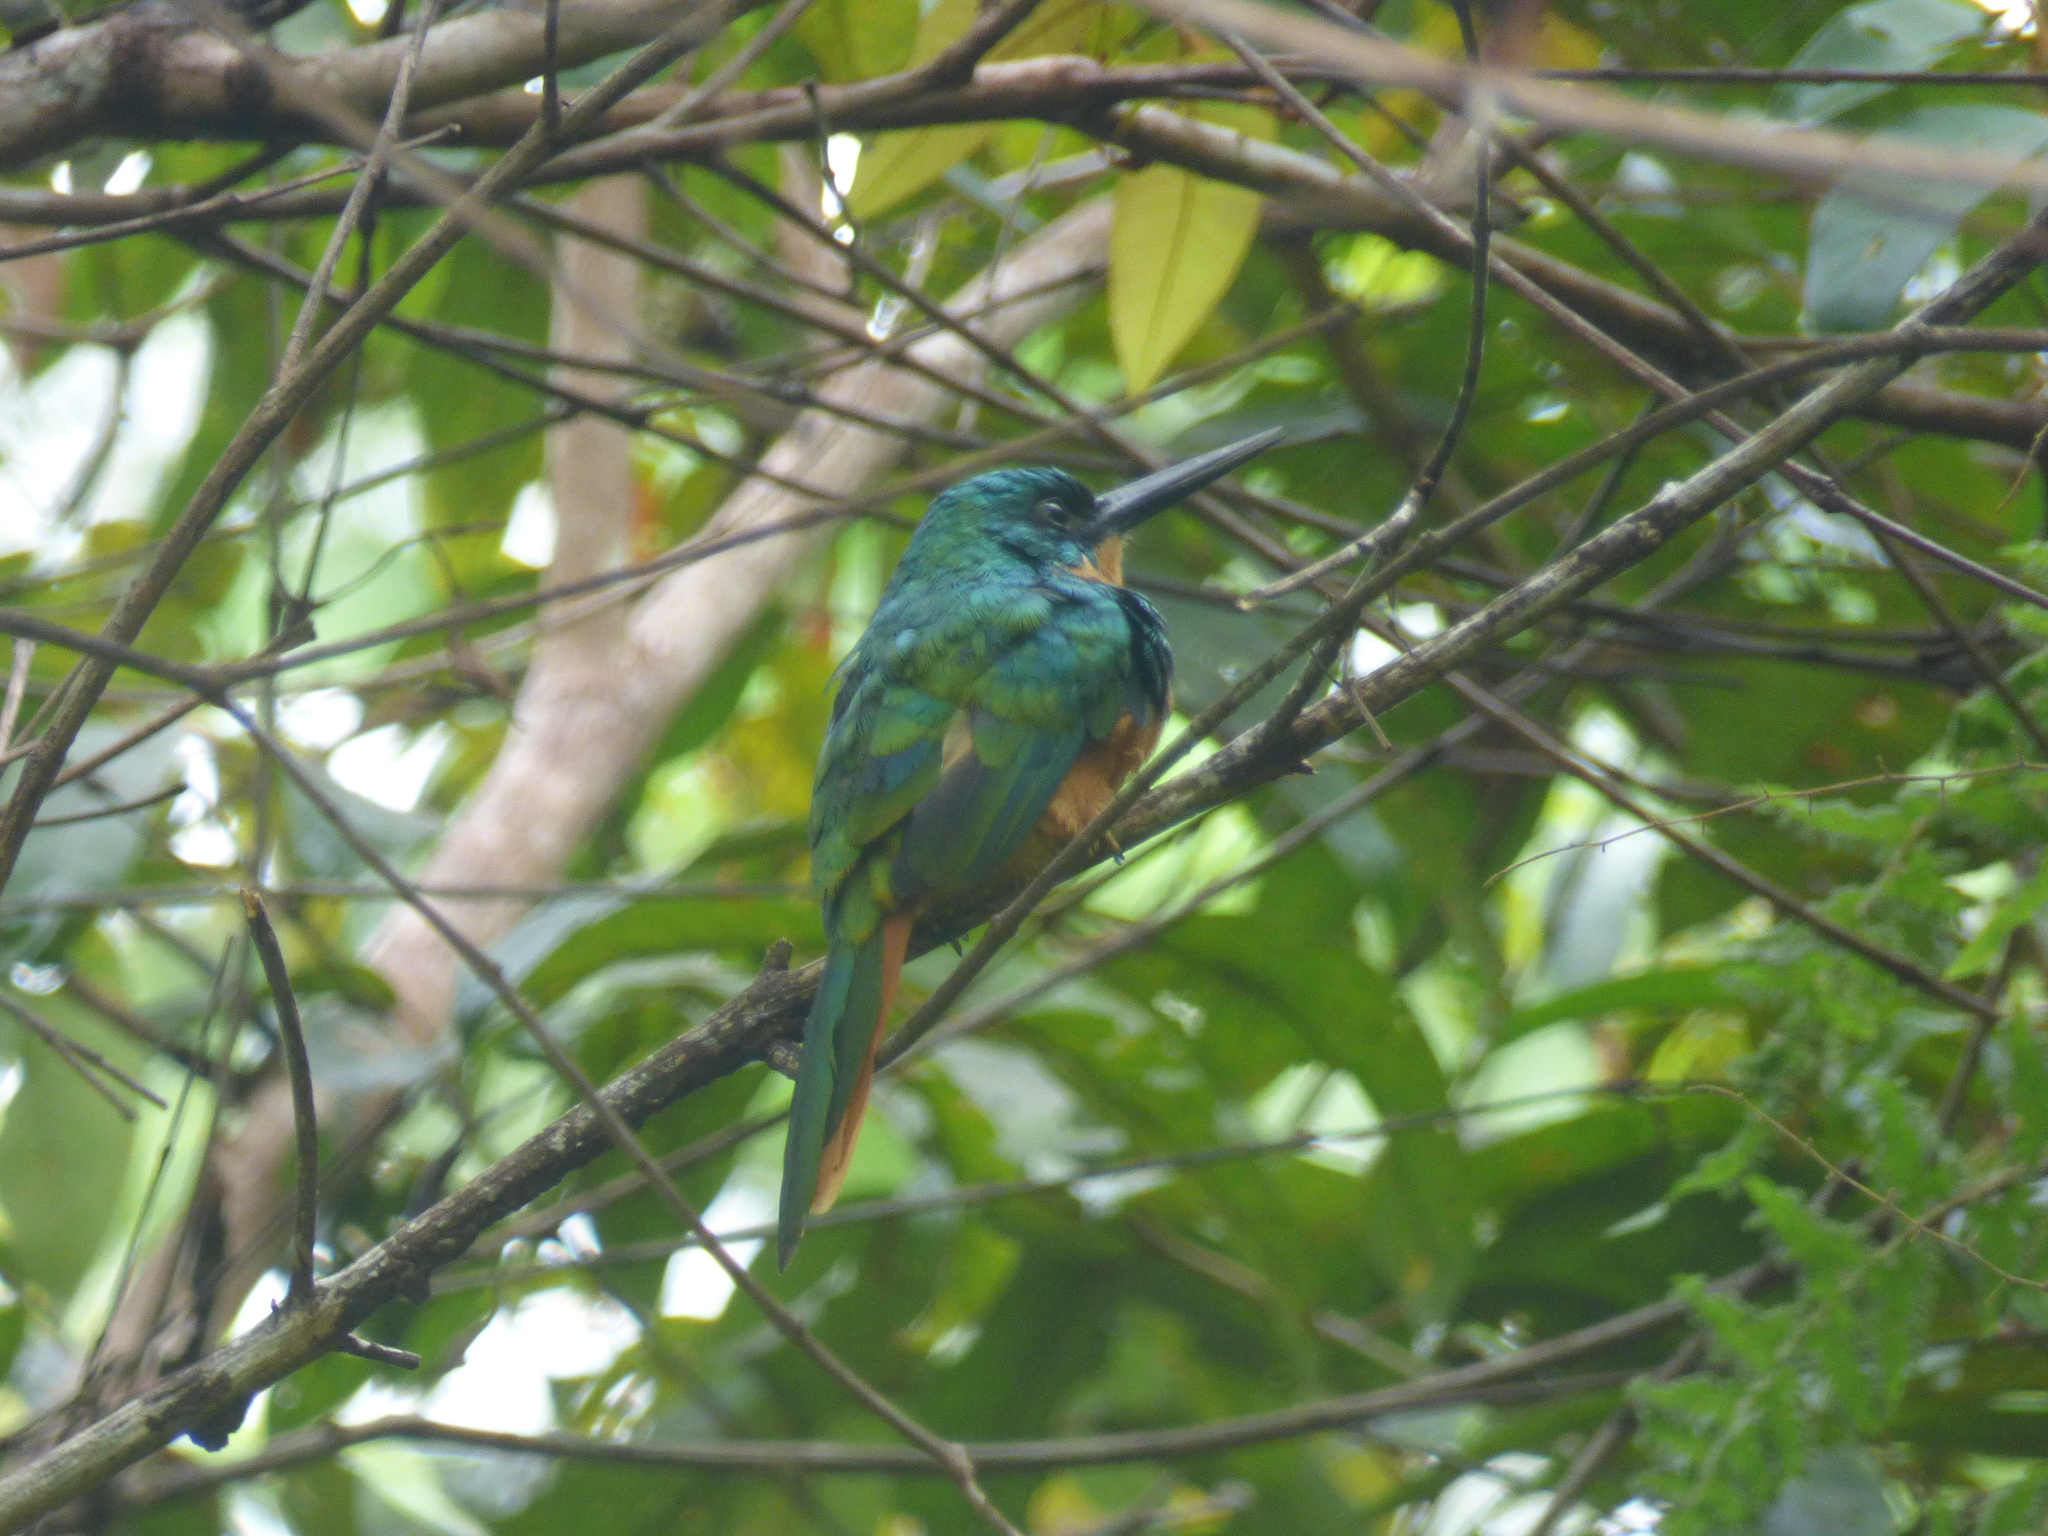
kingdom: Animalia
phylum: Chordata
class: Aves
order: Piciformes
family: Galbulidae
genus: Galbula
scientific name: Galbula ruficauda
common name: Rufous-tailed jacamar
